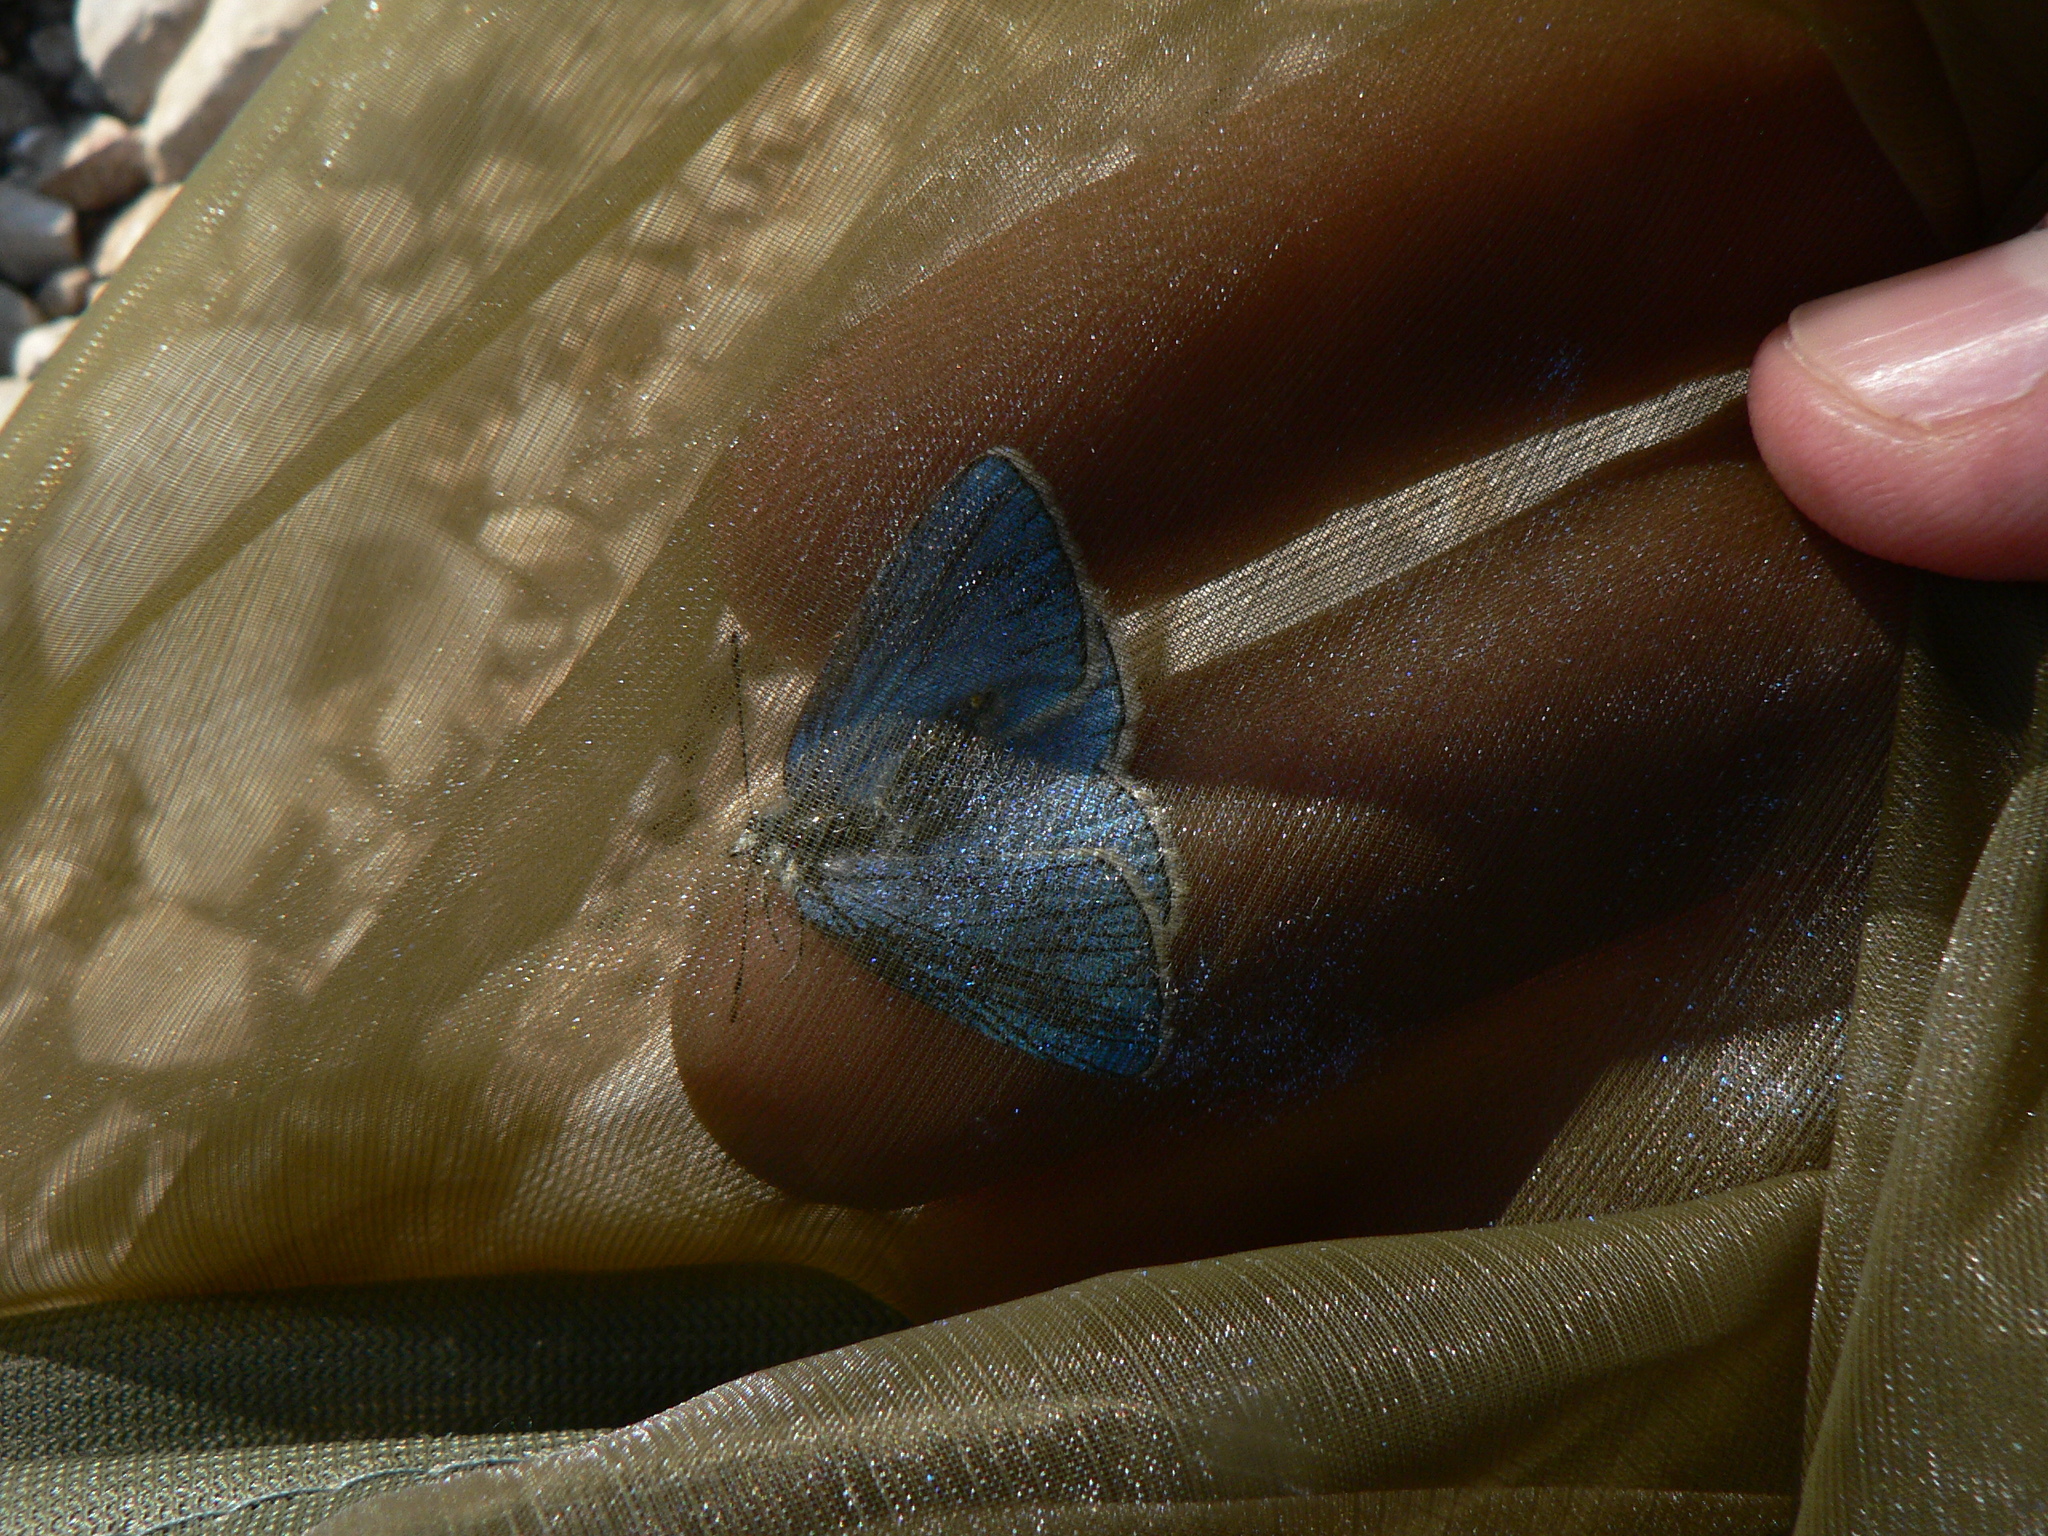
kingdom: Animalia
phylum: Arthropoda
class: Insecta
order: Lepidoptera
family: Lycaenidae
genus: Lysandra
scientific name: Lysandra bellargus
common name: Adonis blue
